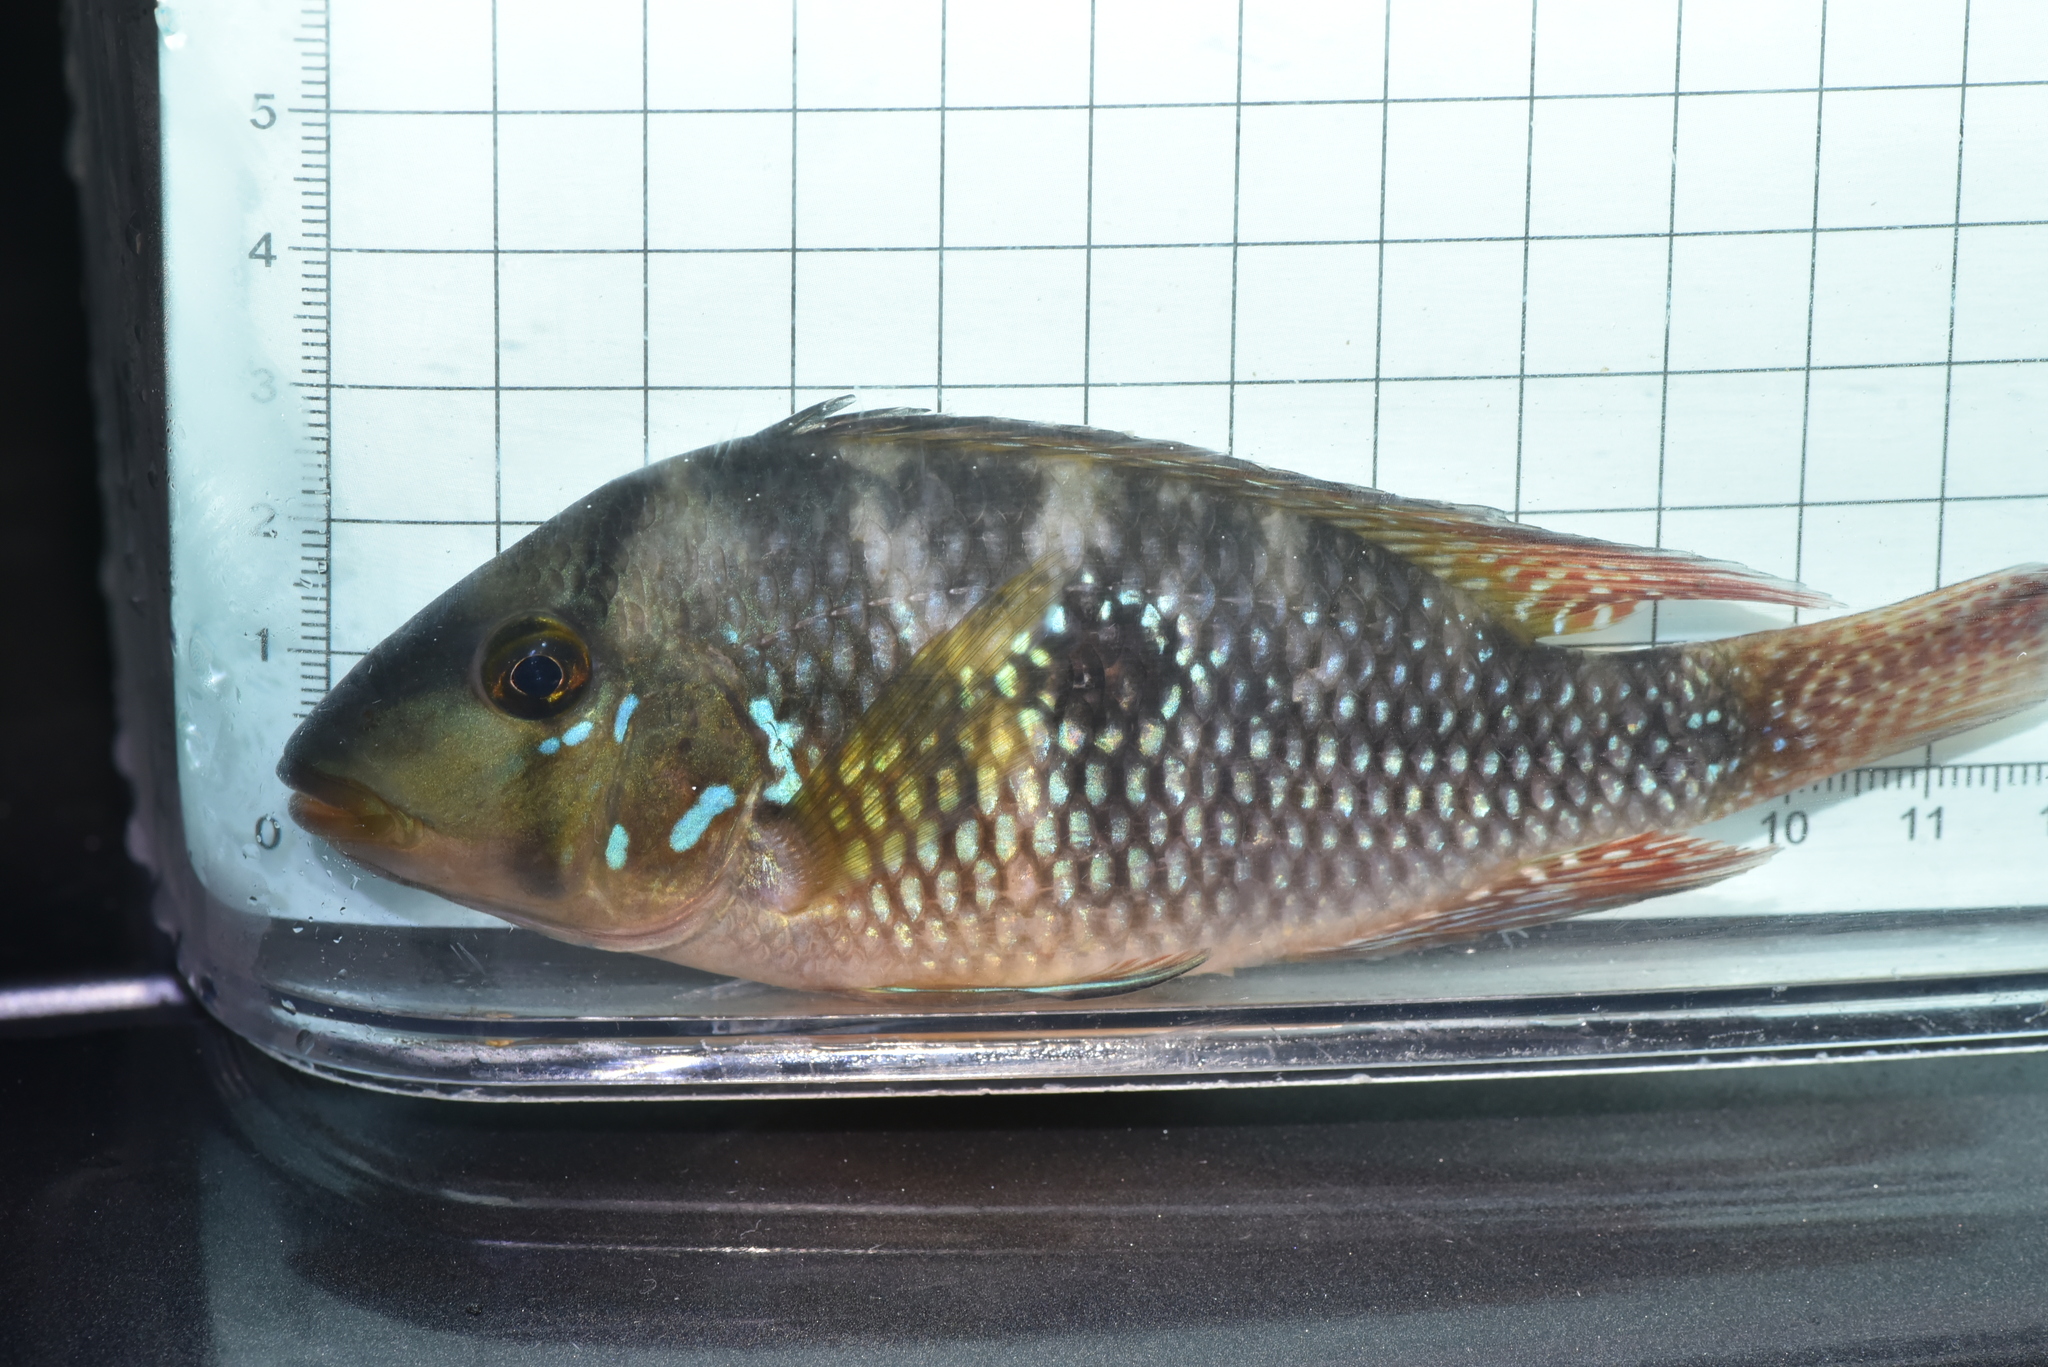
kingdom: Animalia
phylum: Chordata
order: Perciformes
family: Cichlidae
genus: Geophagus
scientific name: Geophagus brasiliensis
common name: Braziliensis
